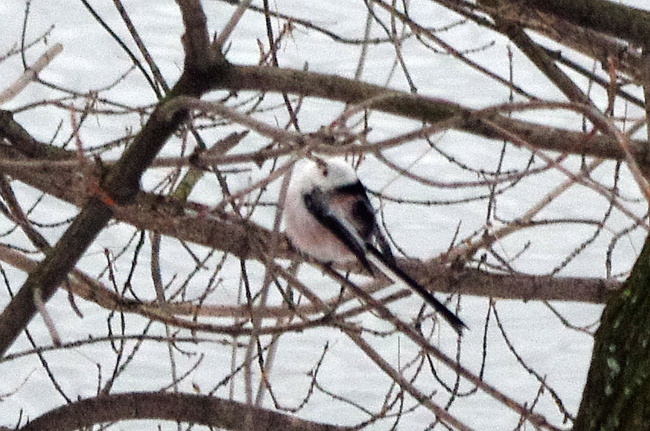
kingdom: Animalia
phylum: Chordata
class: Aves
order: Passeriformes
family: Aegithalidae
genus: Aegithalos
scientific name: Aegithalos caudatus
